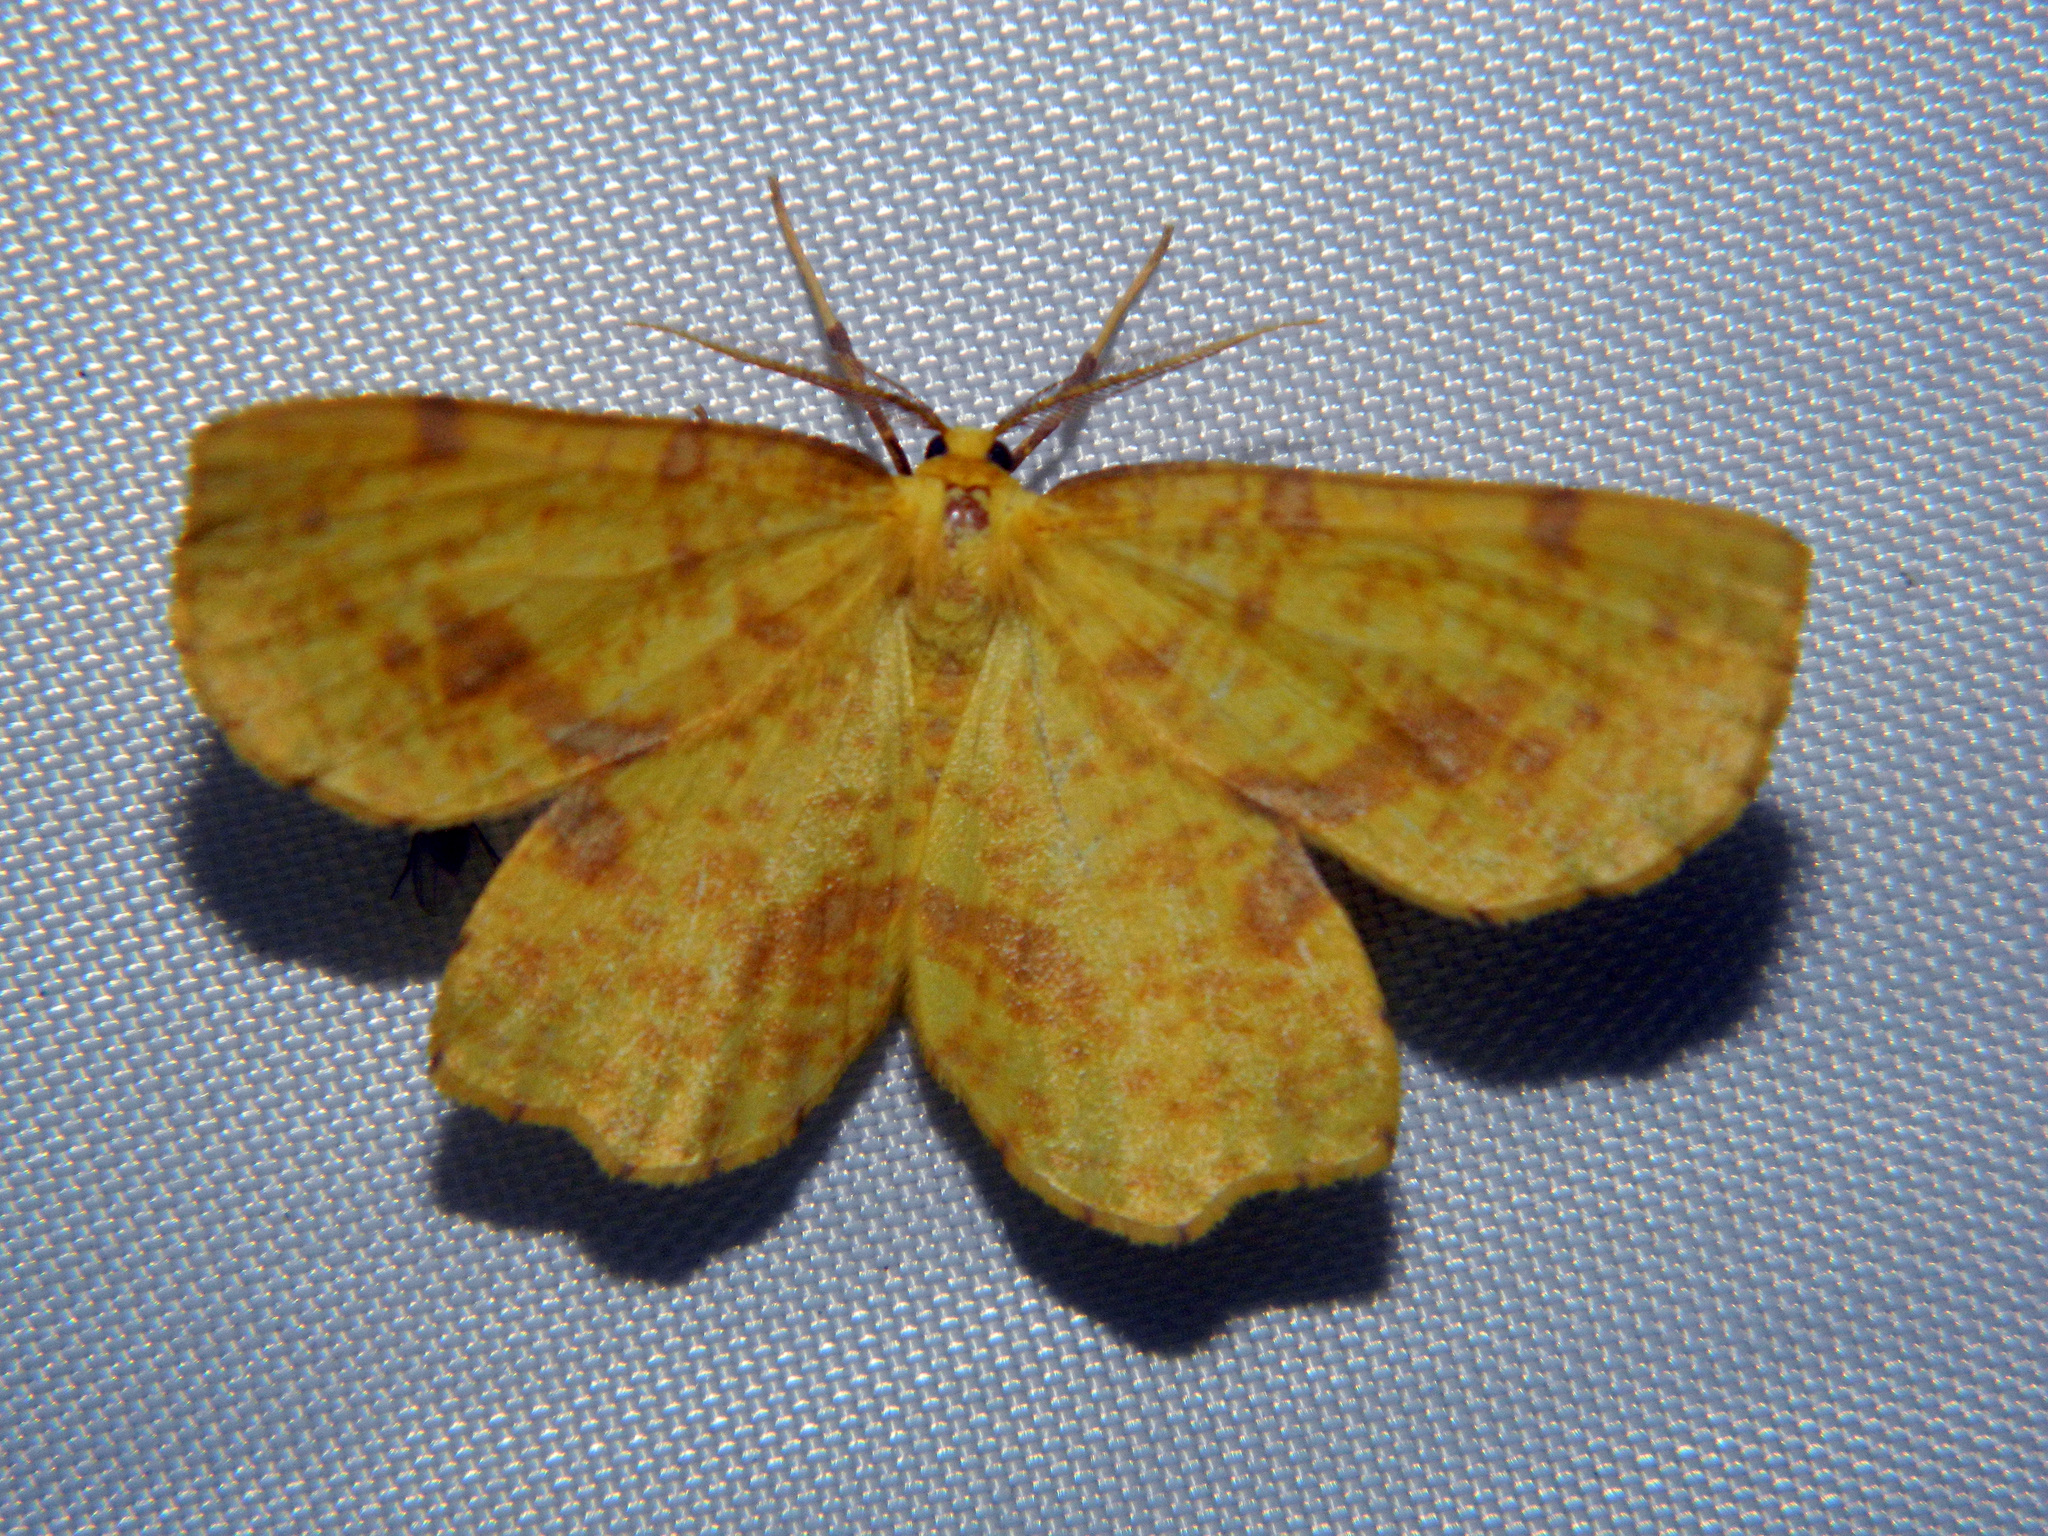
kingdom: Animalia
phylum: Arthropoda
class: Insecta
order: Lepidoptera
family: Geometridae
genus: Xanthotype
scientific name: Xanthotype
